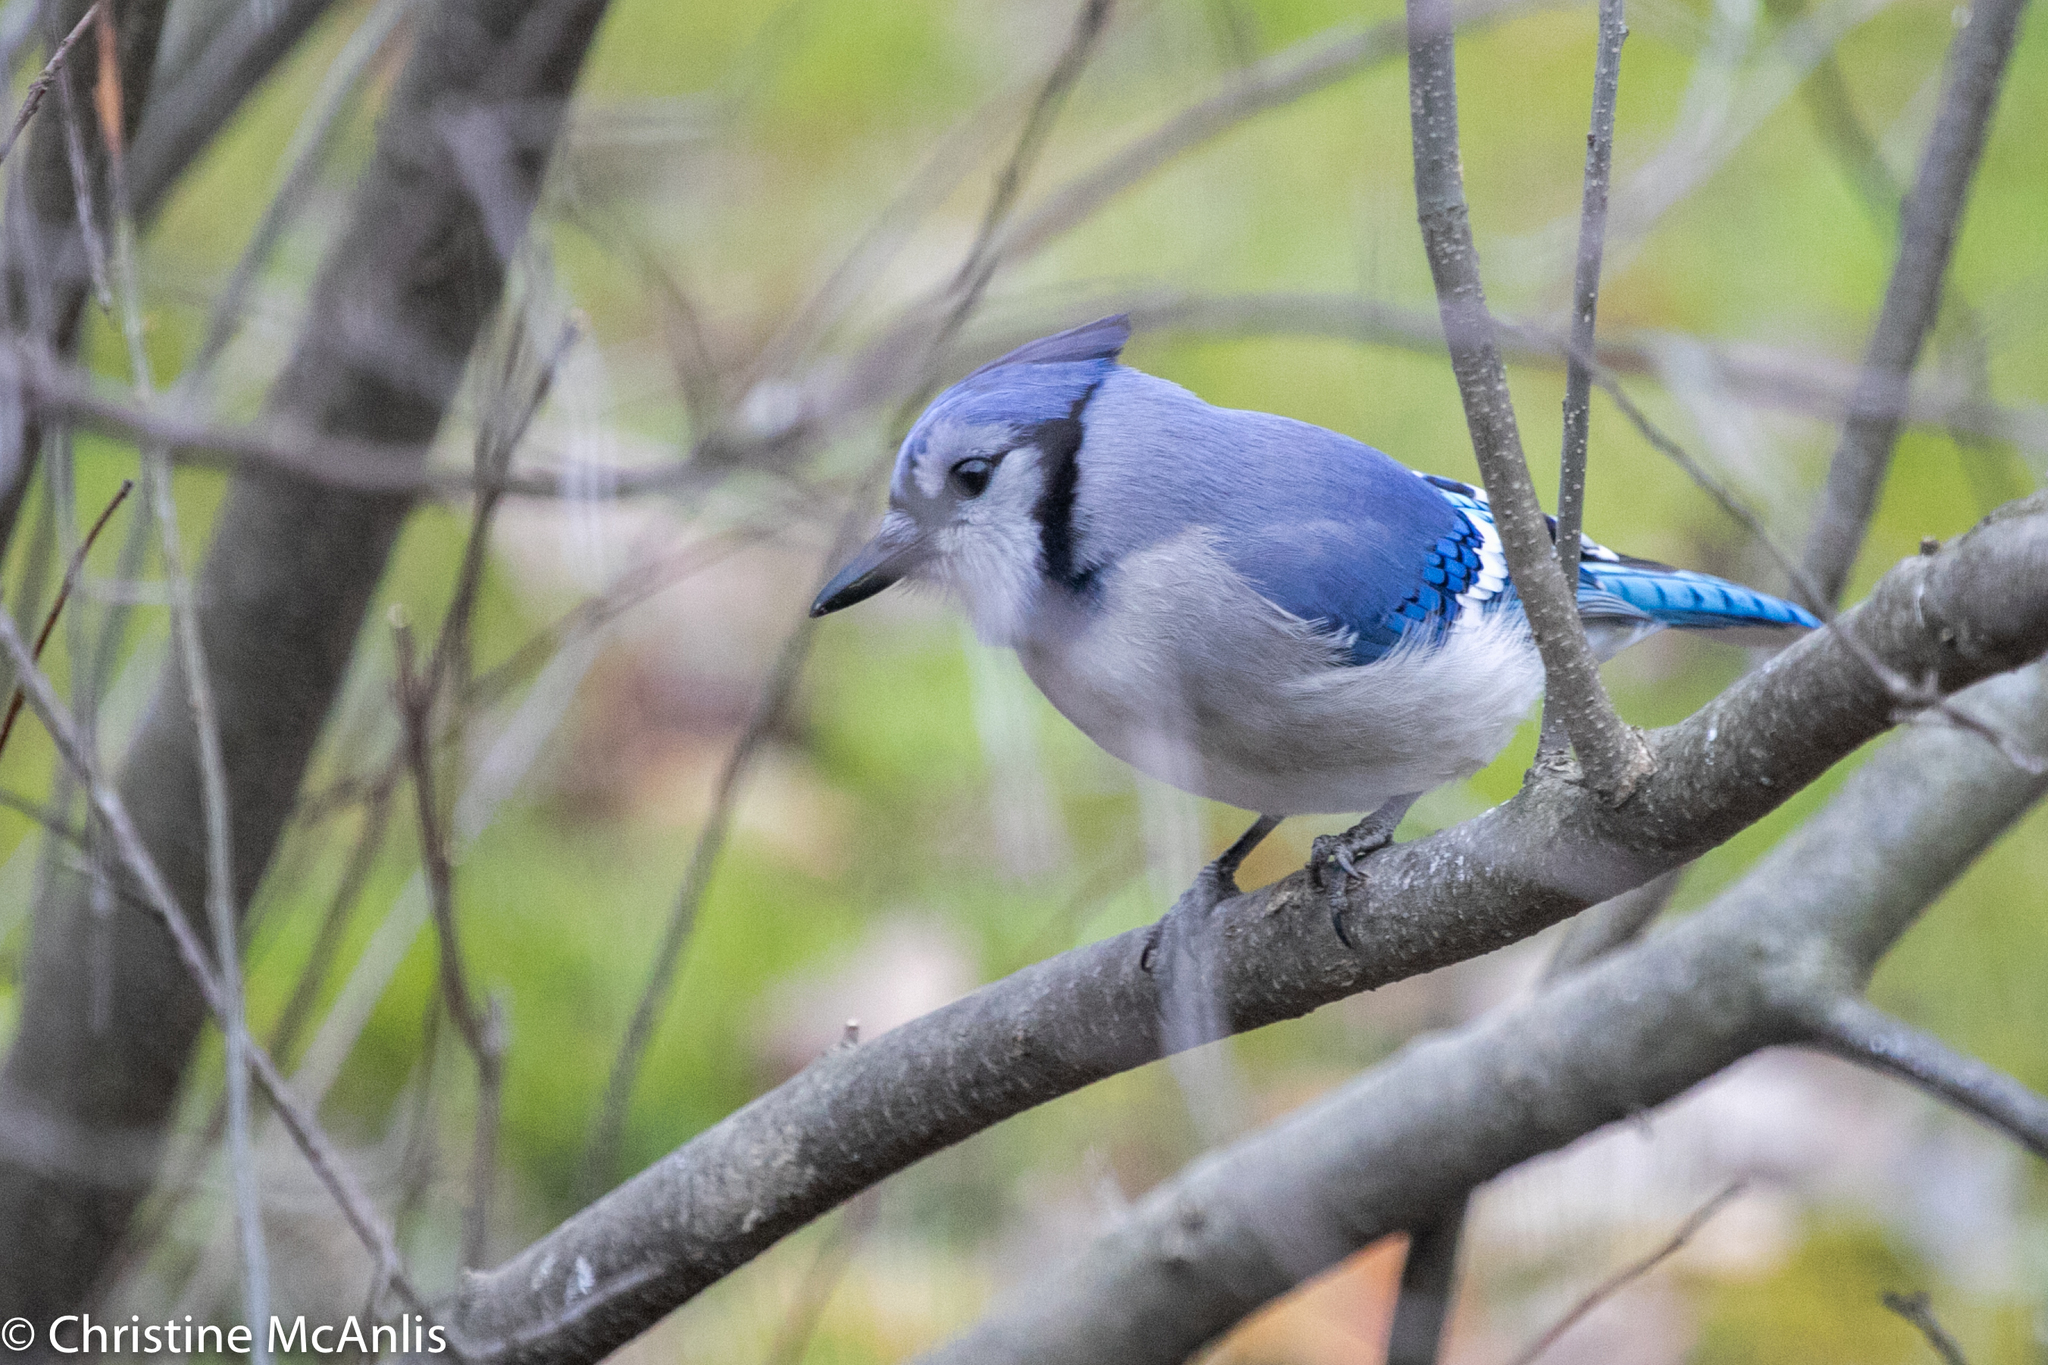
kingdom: Animalia
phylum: Chordata
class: Aves
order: Passeriformes
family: Corvidae
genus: Cyanocitta
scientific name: Cyanocitta cristata
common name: Blue jay
